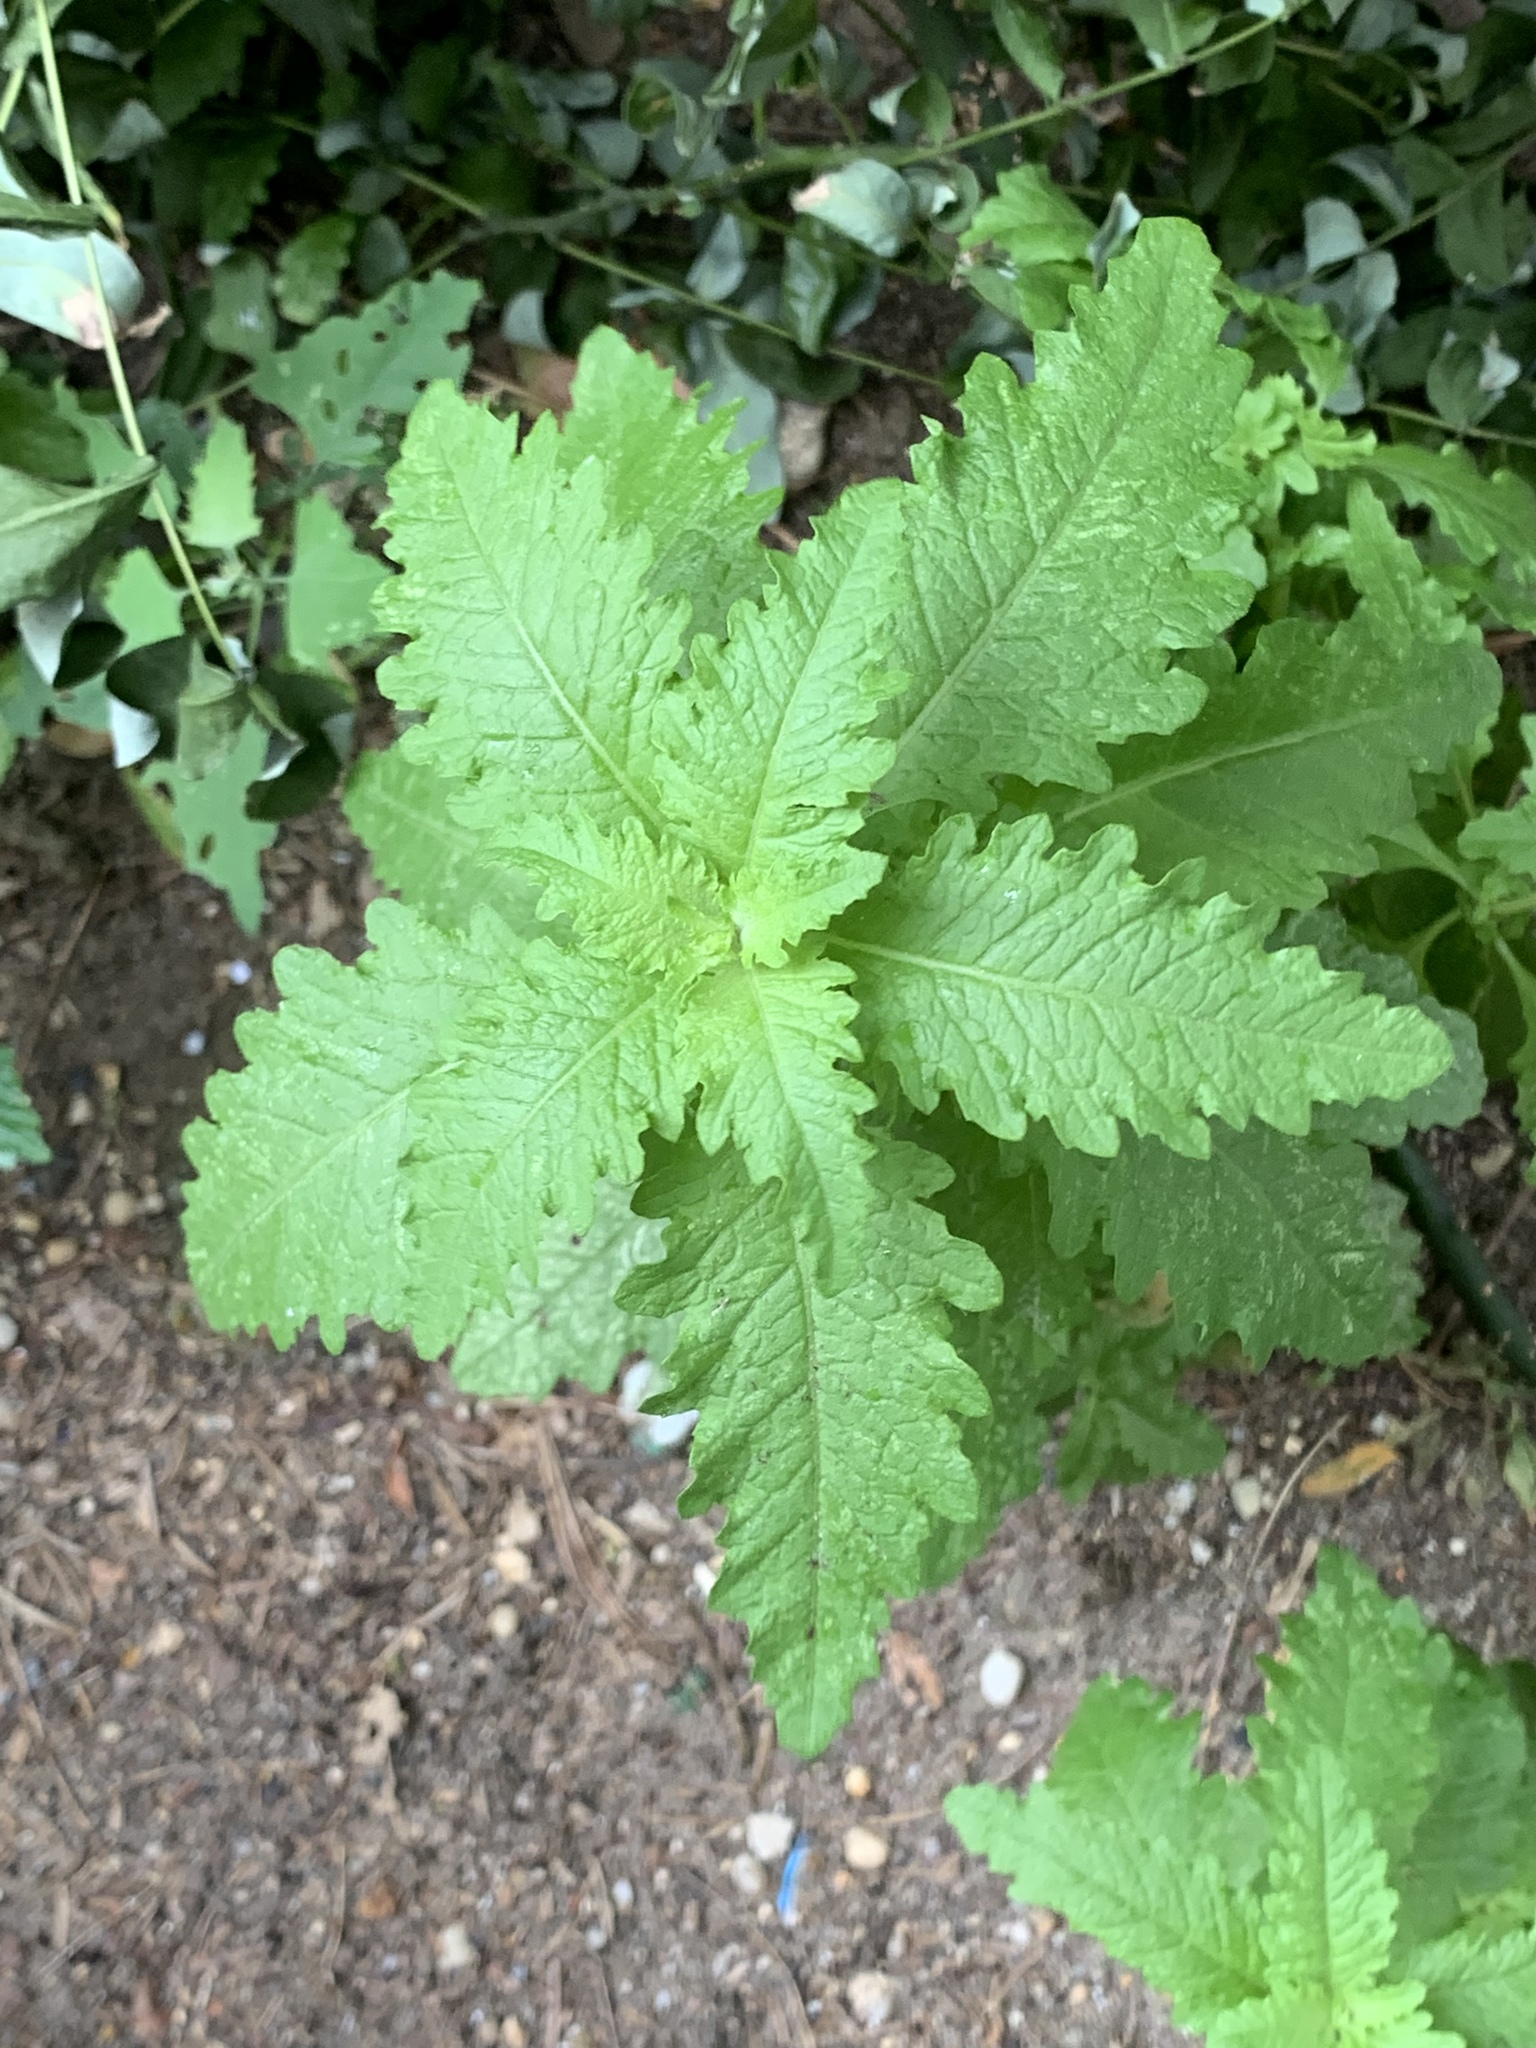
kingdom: Plantae
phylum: Tracheophyta
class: Magnoliopsida
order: Caryophyllales
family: Amaranthaceae
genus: Dysphania
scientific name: Dysphania ambrosioides
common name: Wormseed
